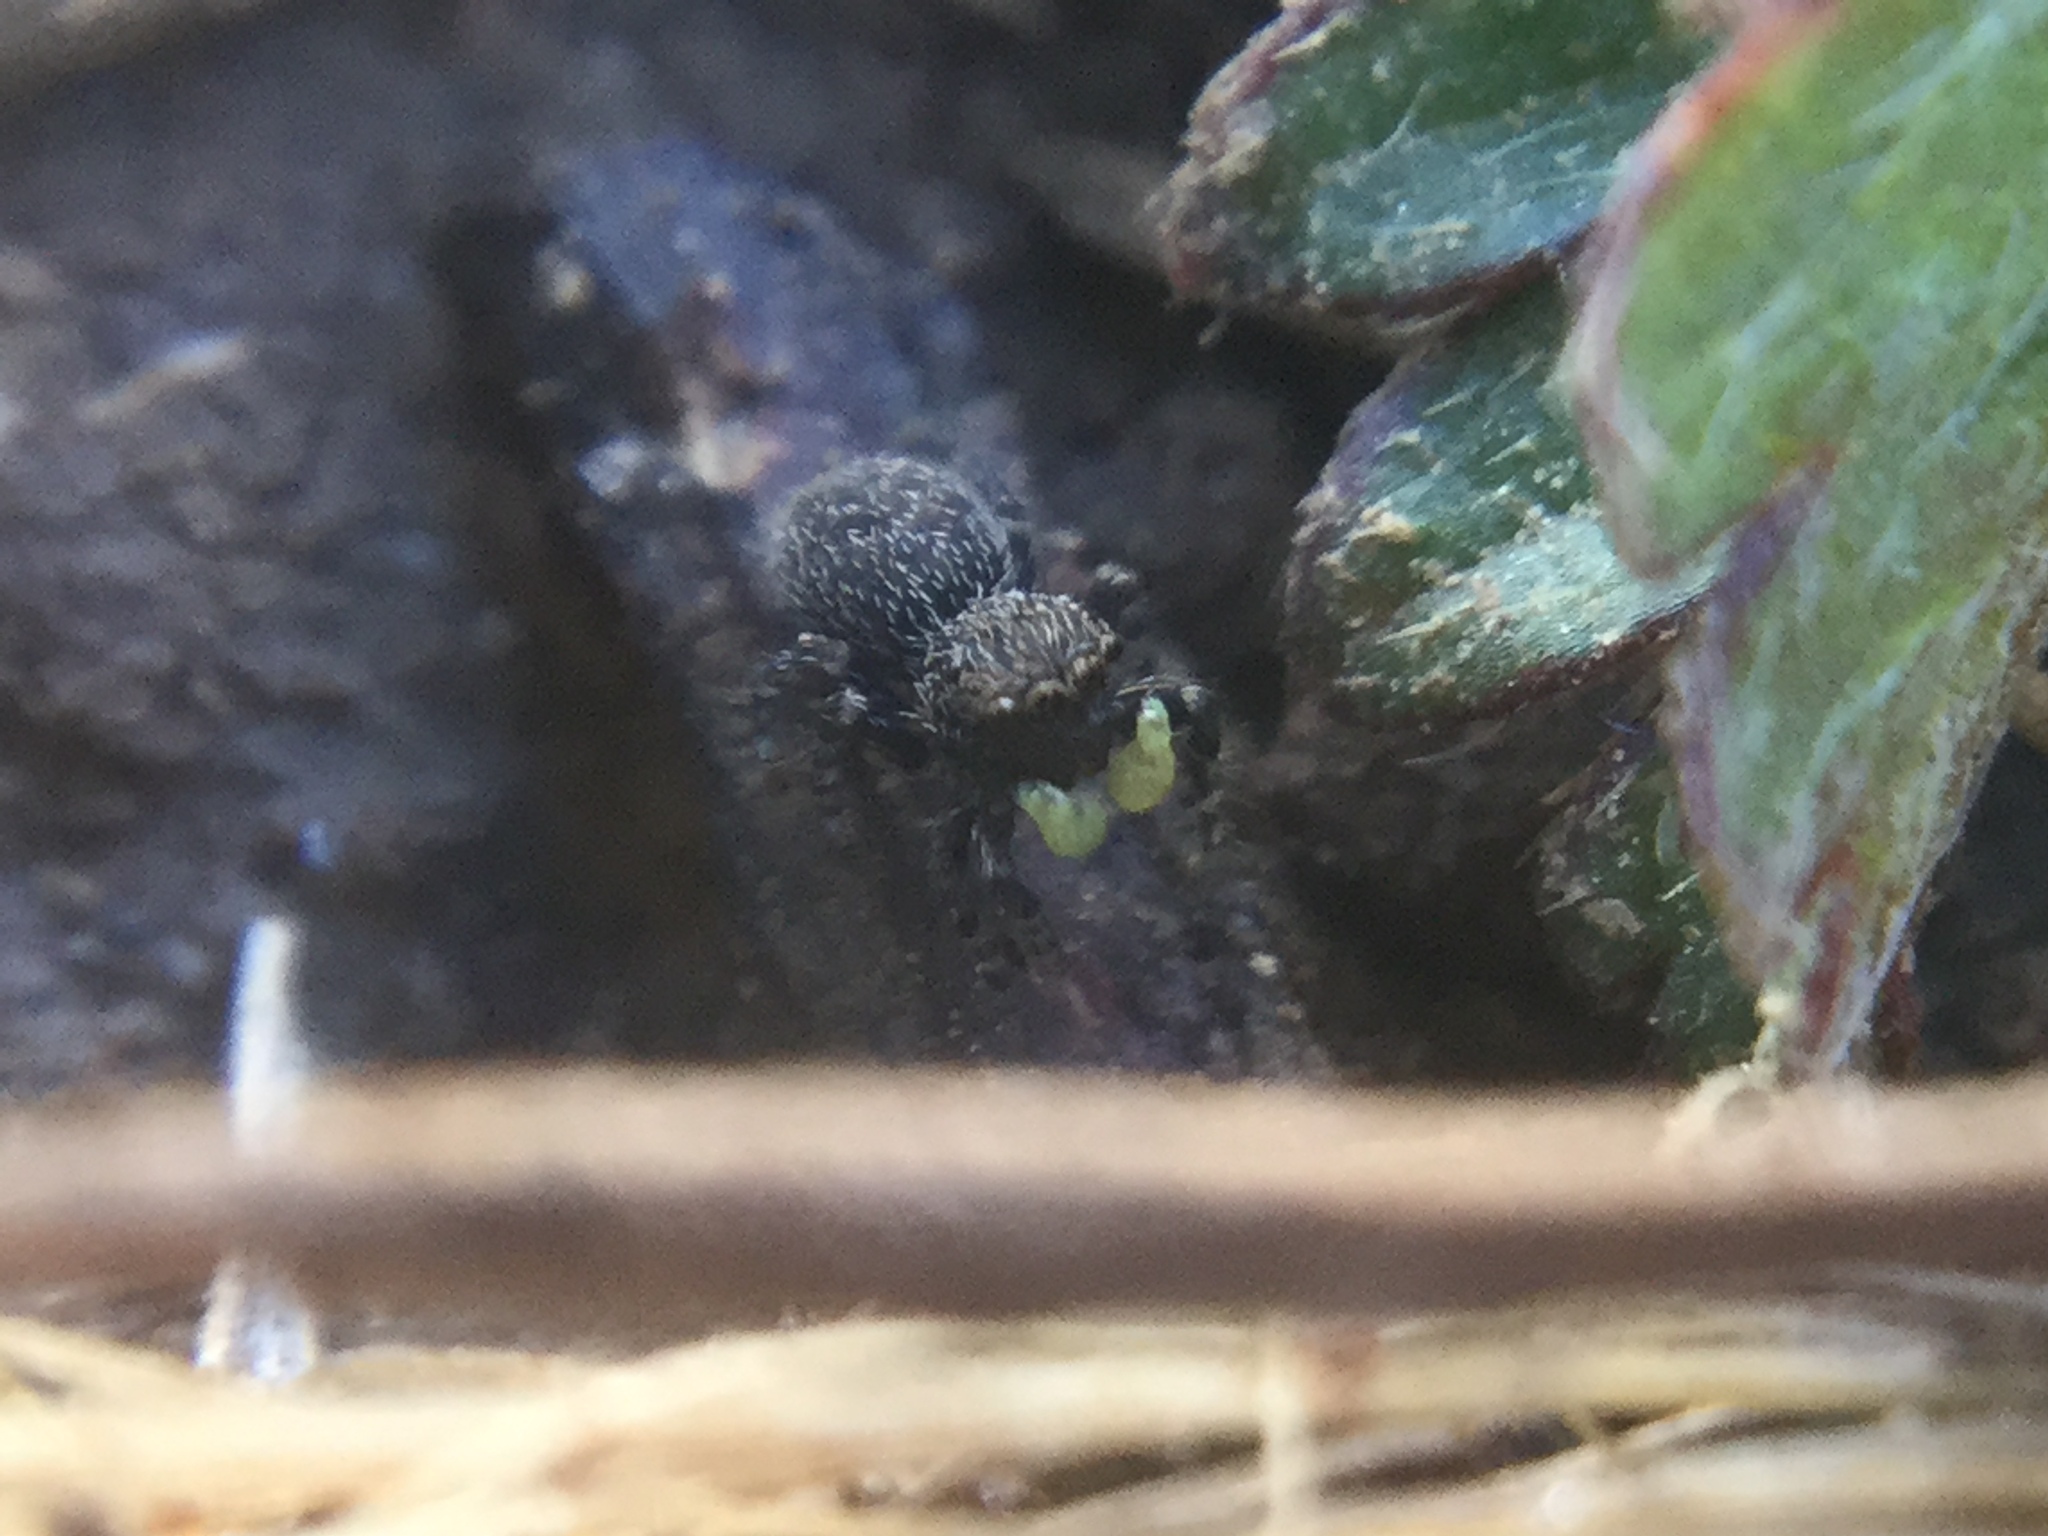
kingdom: Animalia
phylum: Arthropoda
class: Arachnida
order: Araneae
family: Salticidae
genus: Talavera
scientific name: Talavera minuta
